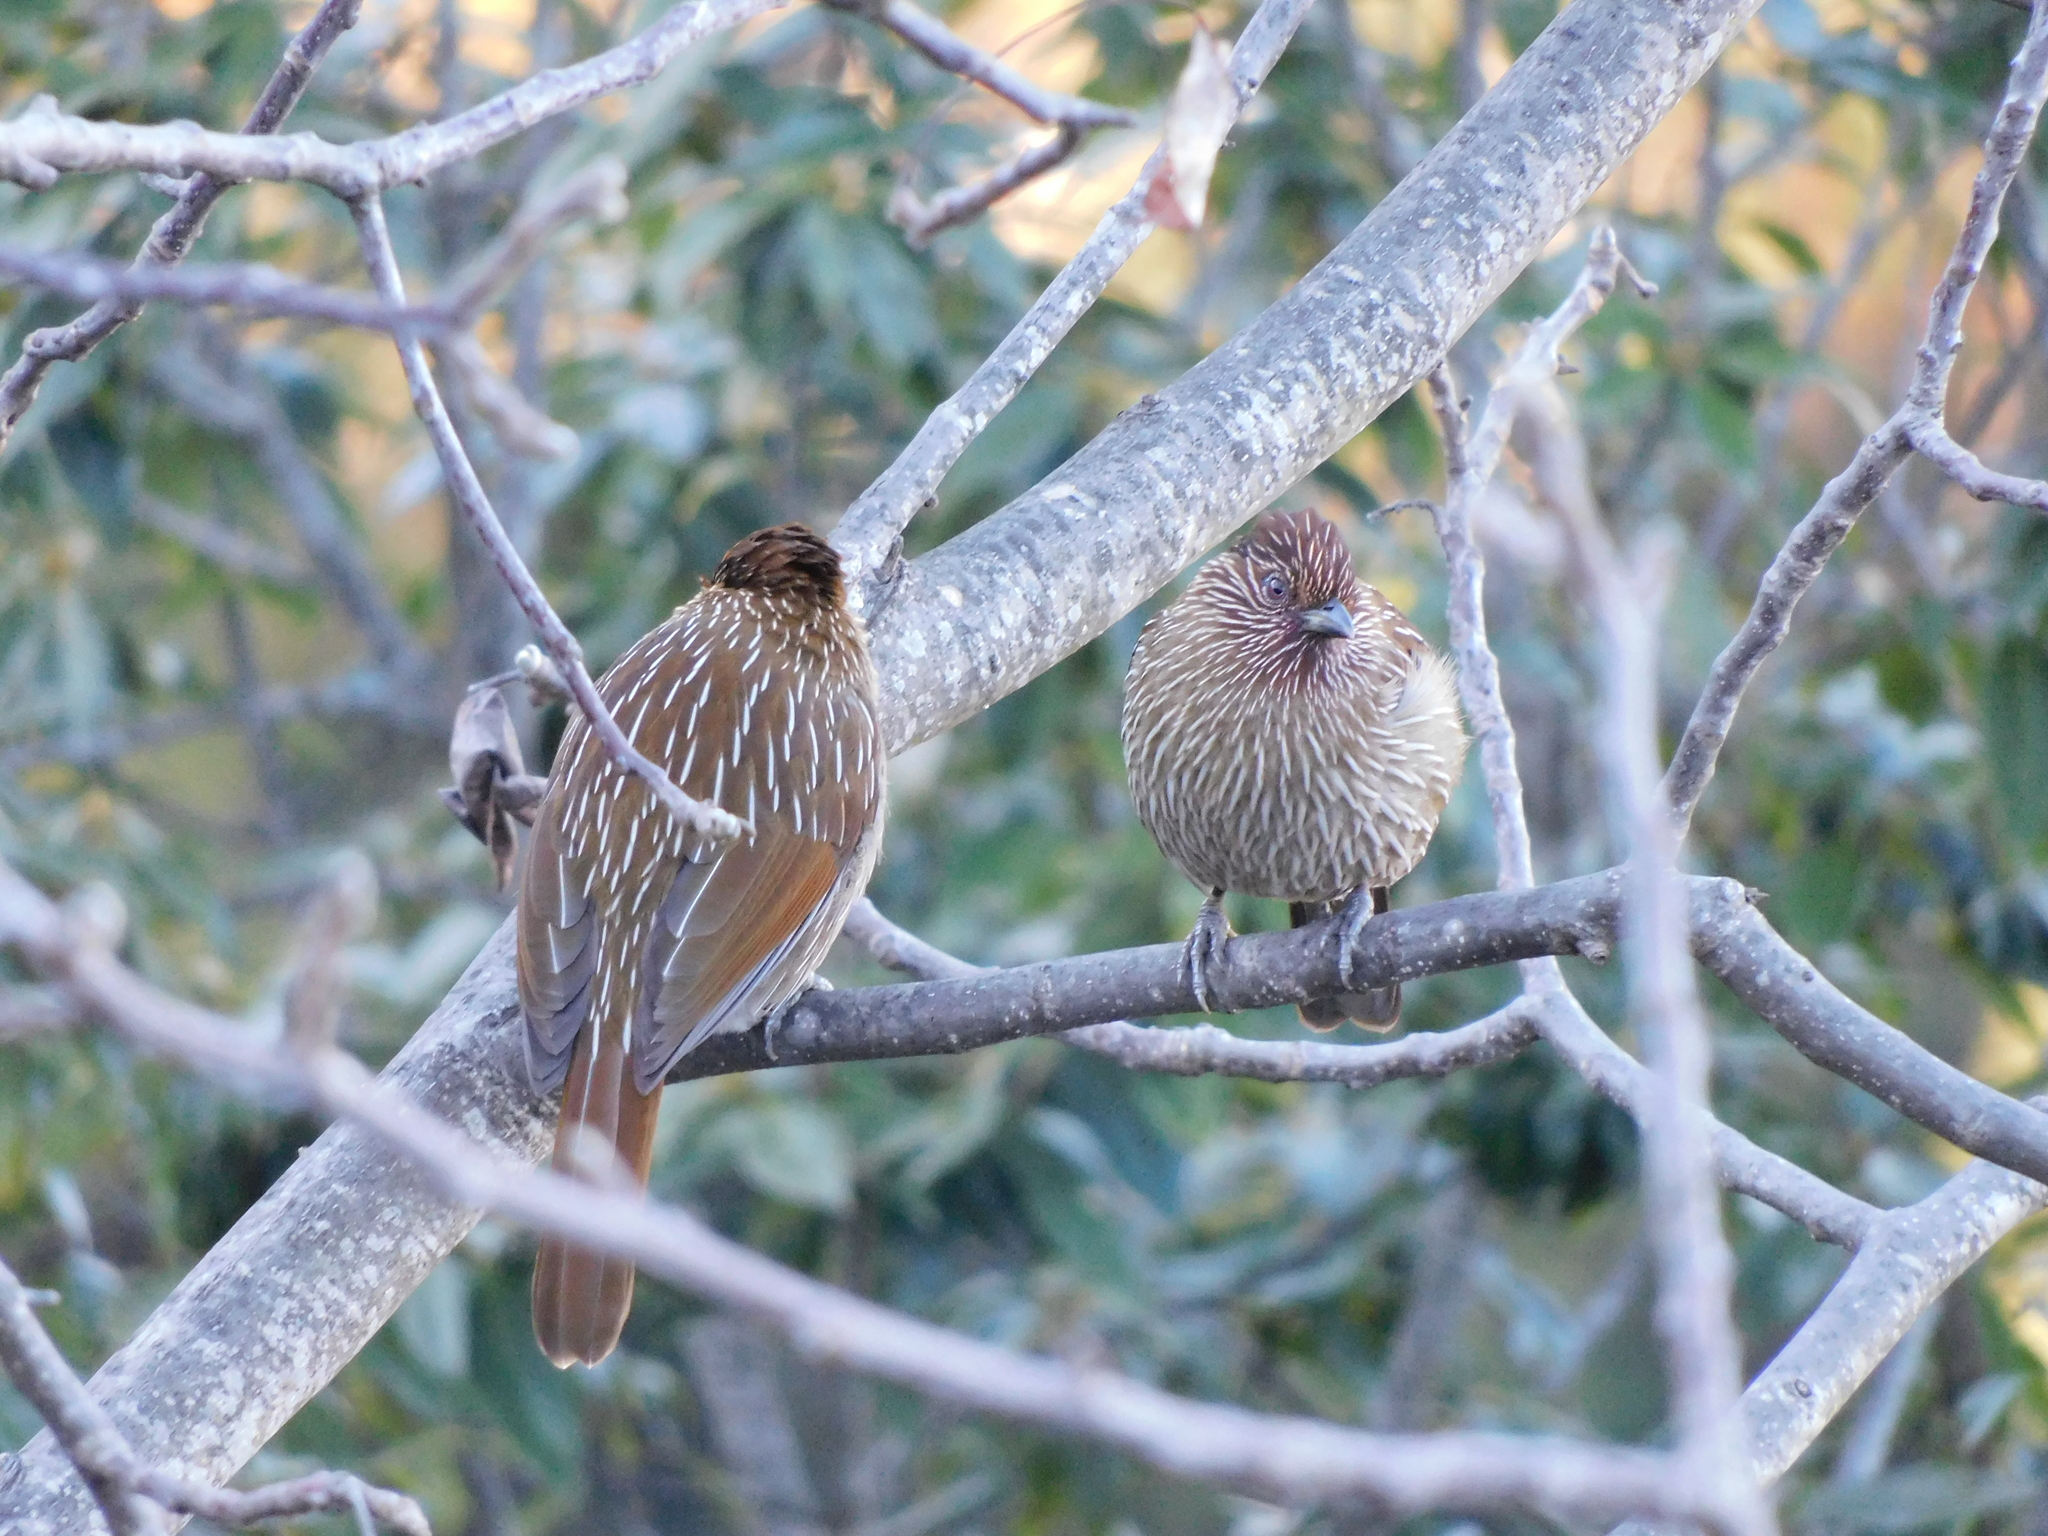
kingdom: Animalia
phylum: Chordata
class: Aves
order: Passeriformes
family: Leiothrichidae
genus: Garrulax
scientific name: Garrulax striatus
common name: Striated laughingthrush
